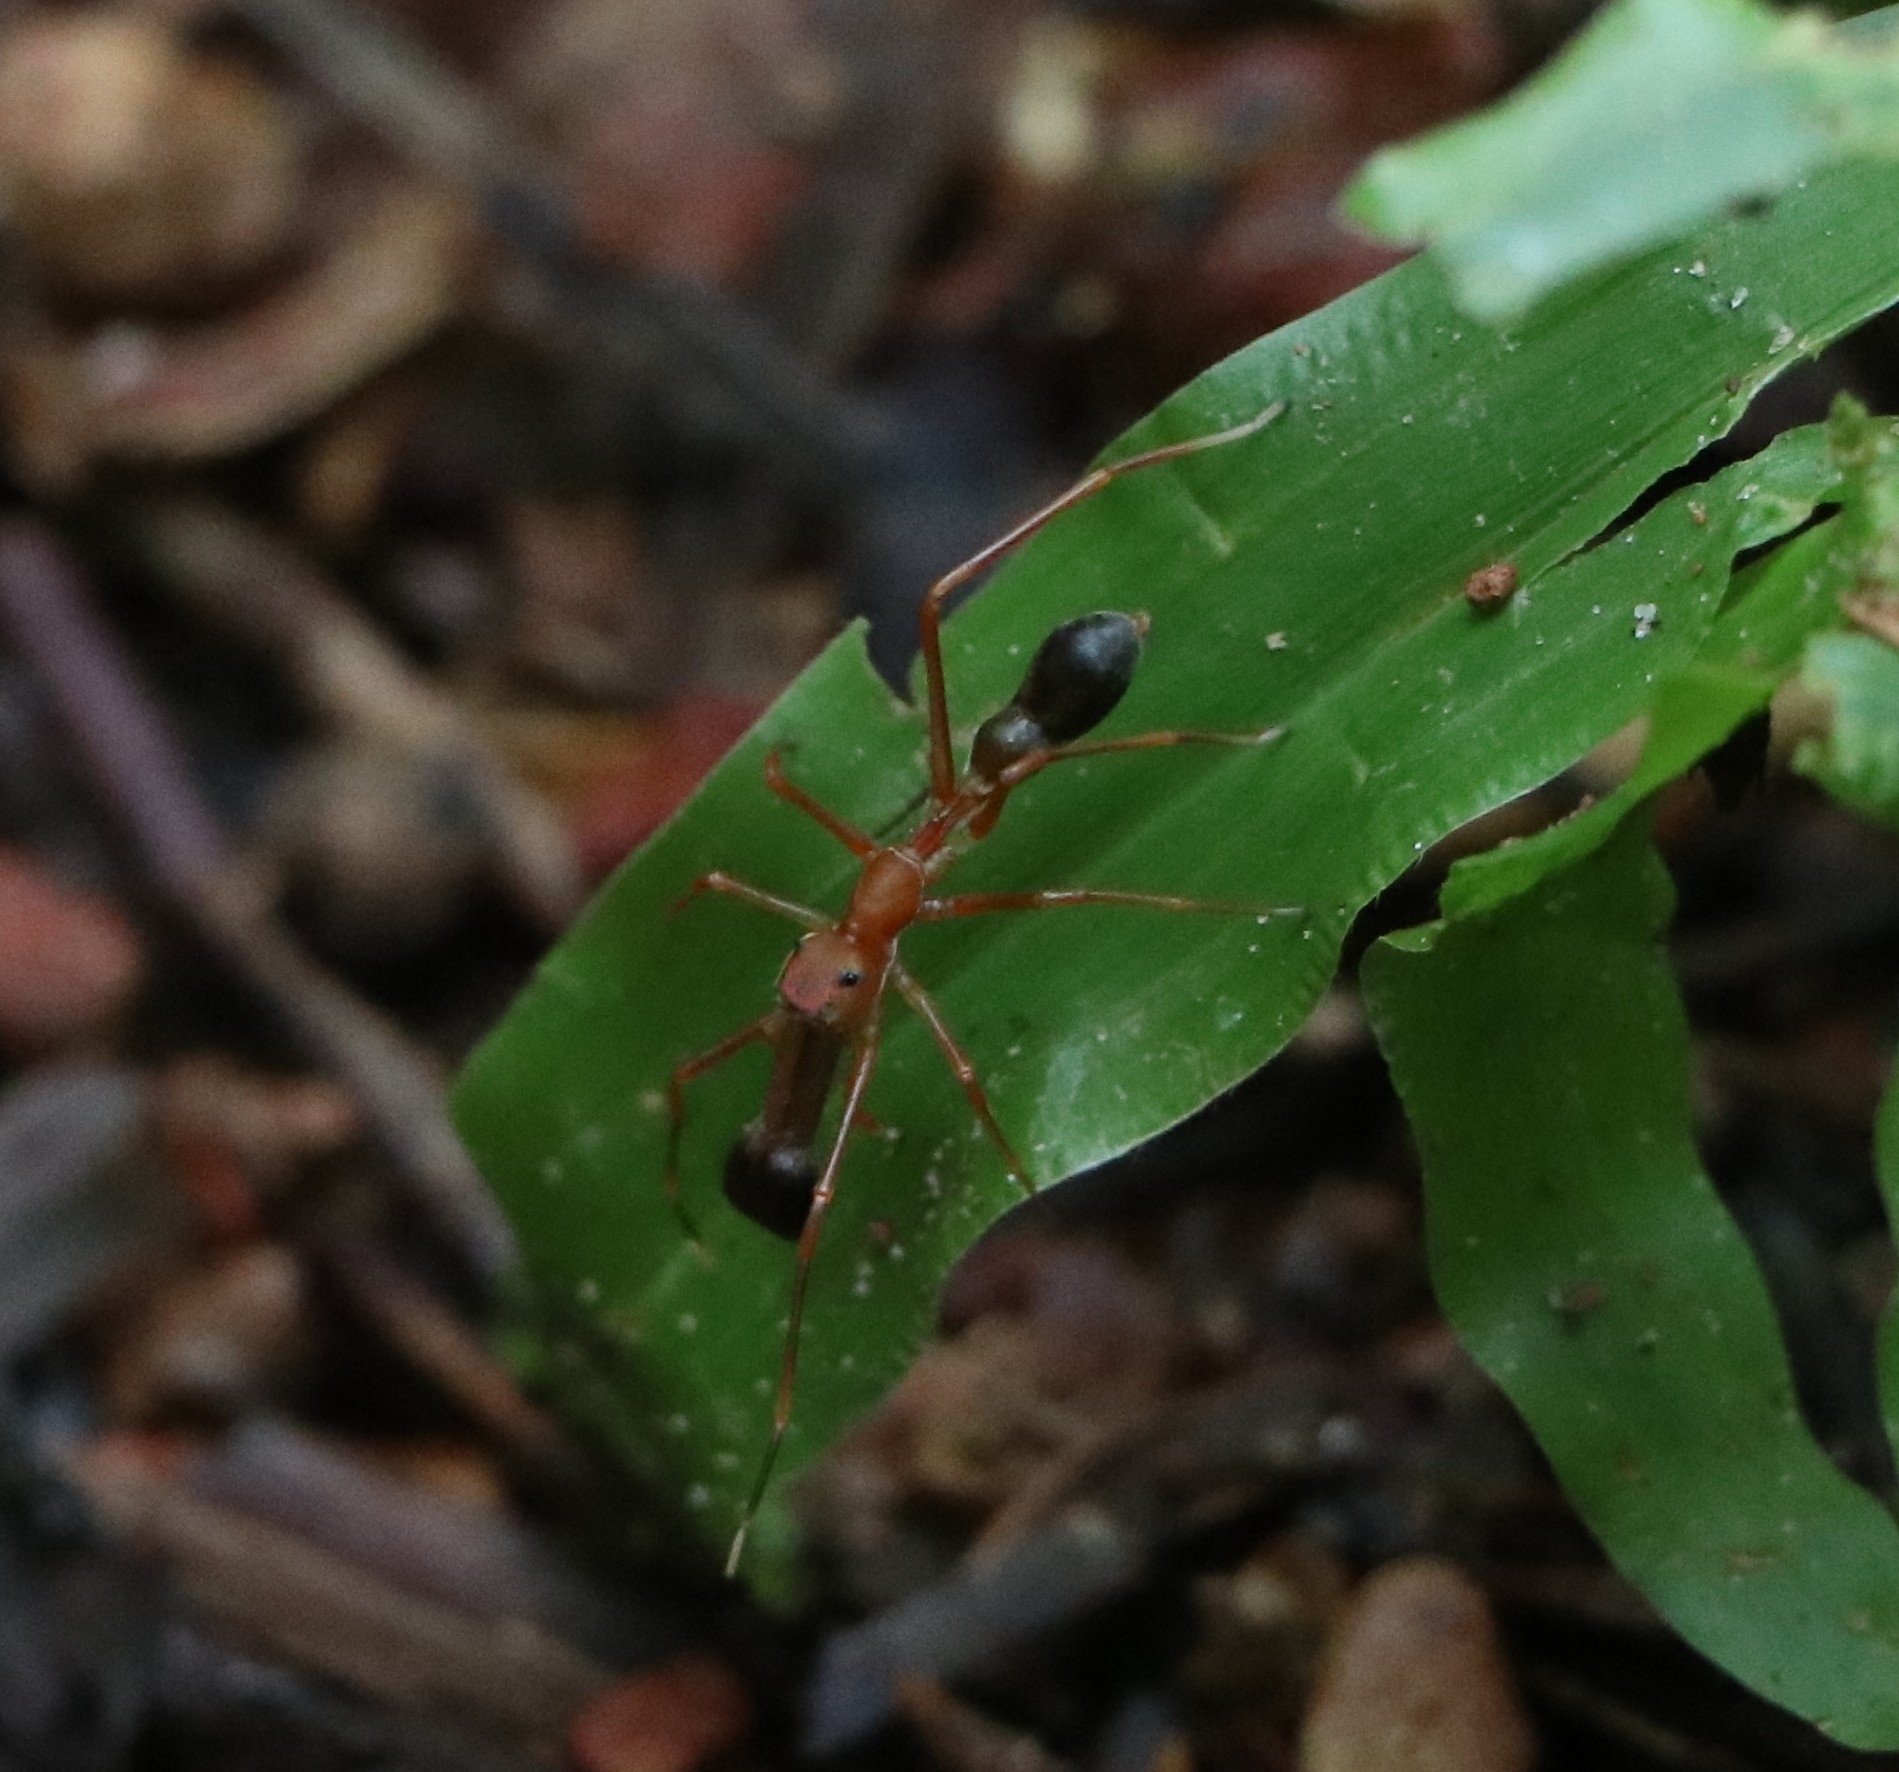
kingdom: Animalia
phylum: Arthropoda
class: Arachnida
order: Araneae
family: Salticidae
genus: Myrmaplata
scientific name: Myrmaplata plataleoides
